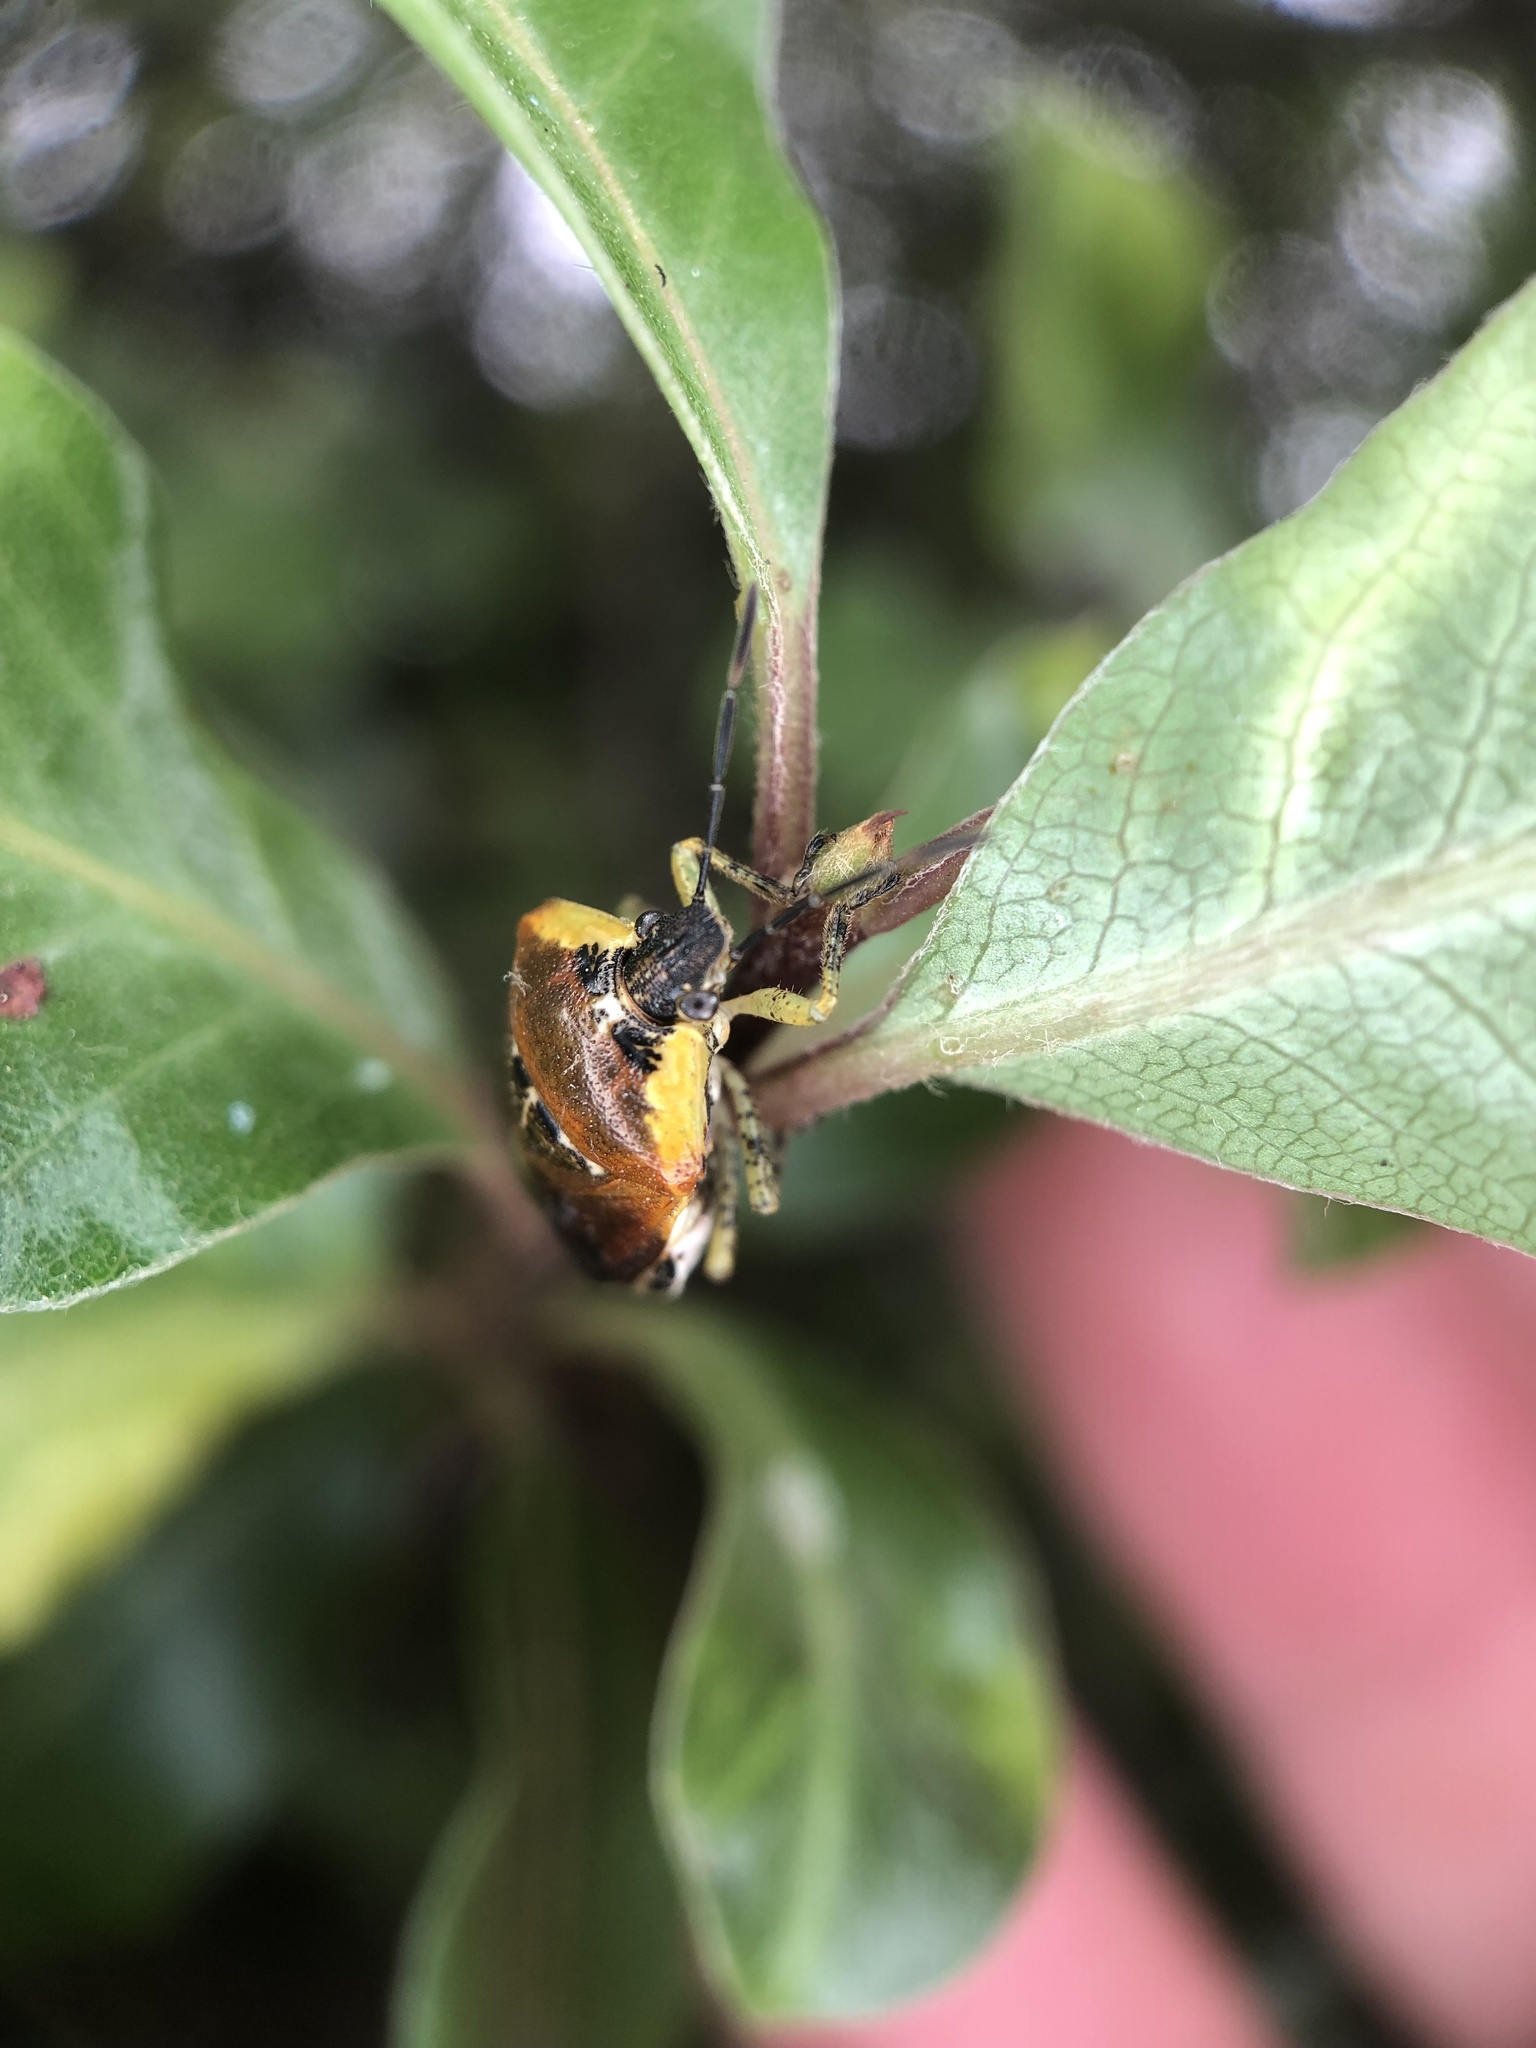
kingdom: Animalia
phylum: Arthropoda
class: Insecta
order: Hemiptera
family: Pentatomidae
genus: Monteithiella
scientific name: Monteithiella
